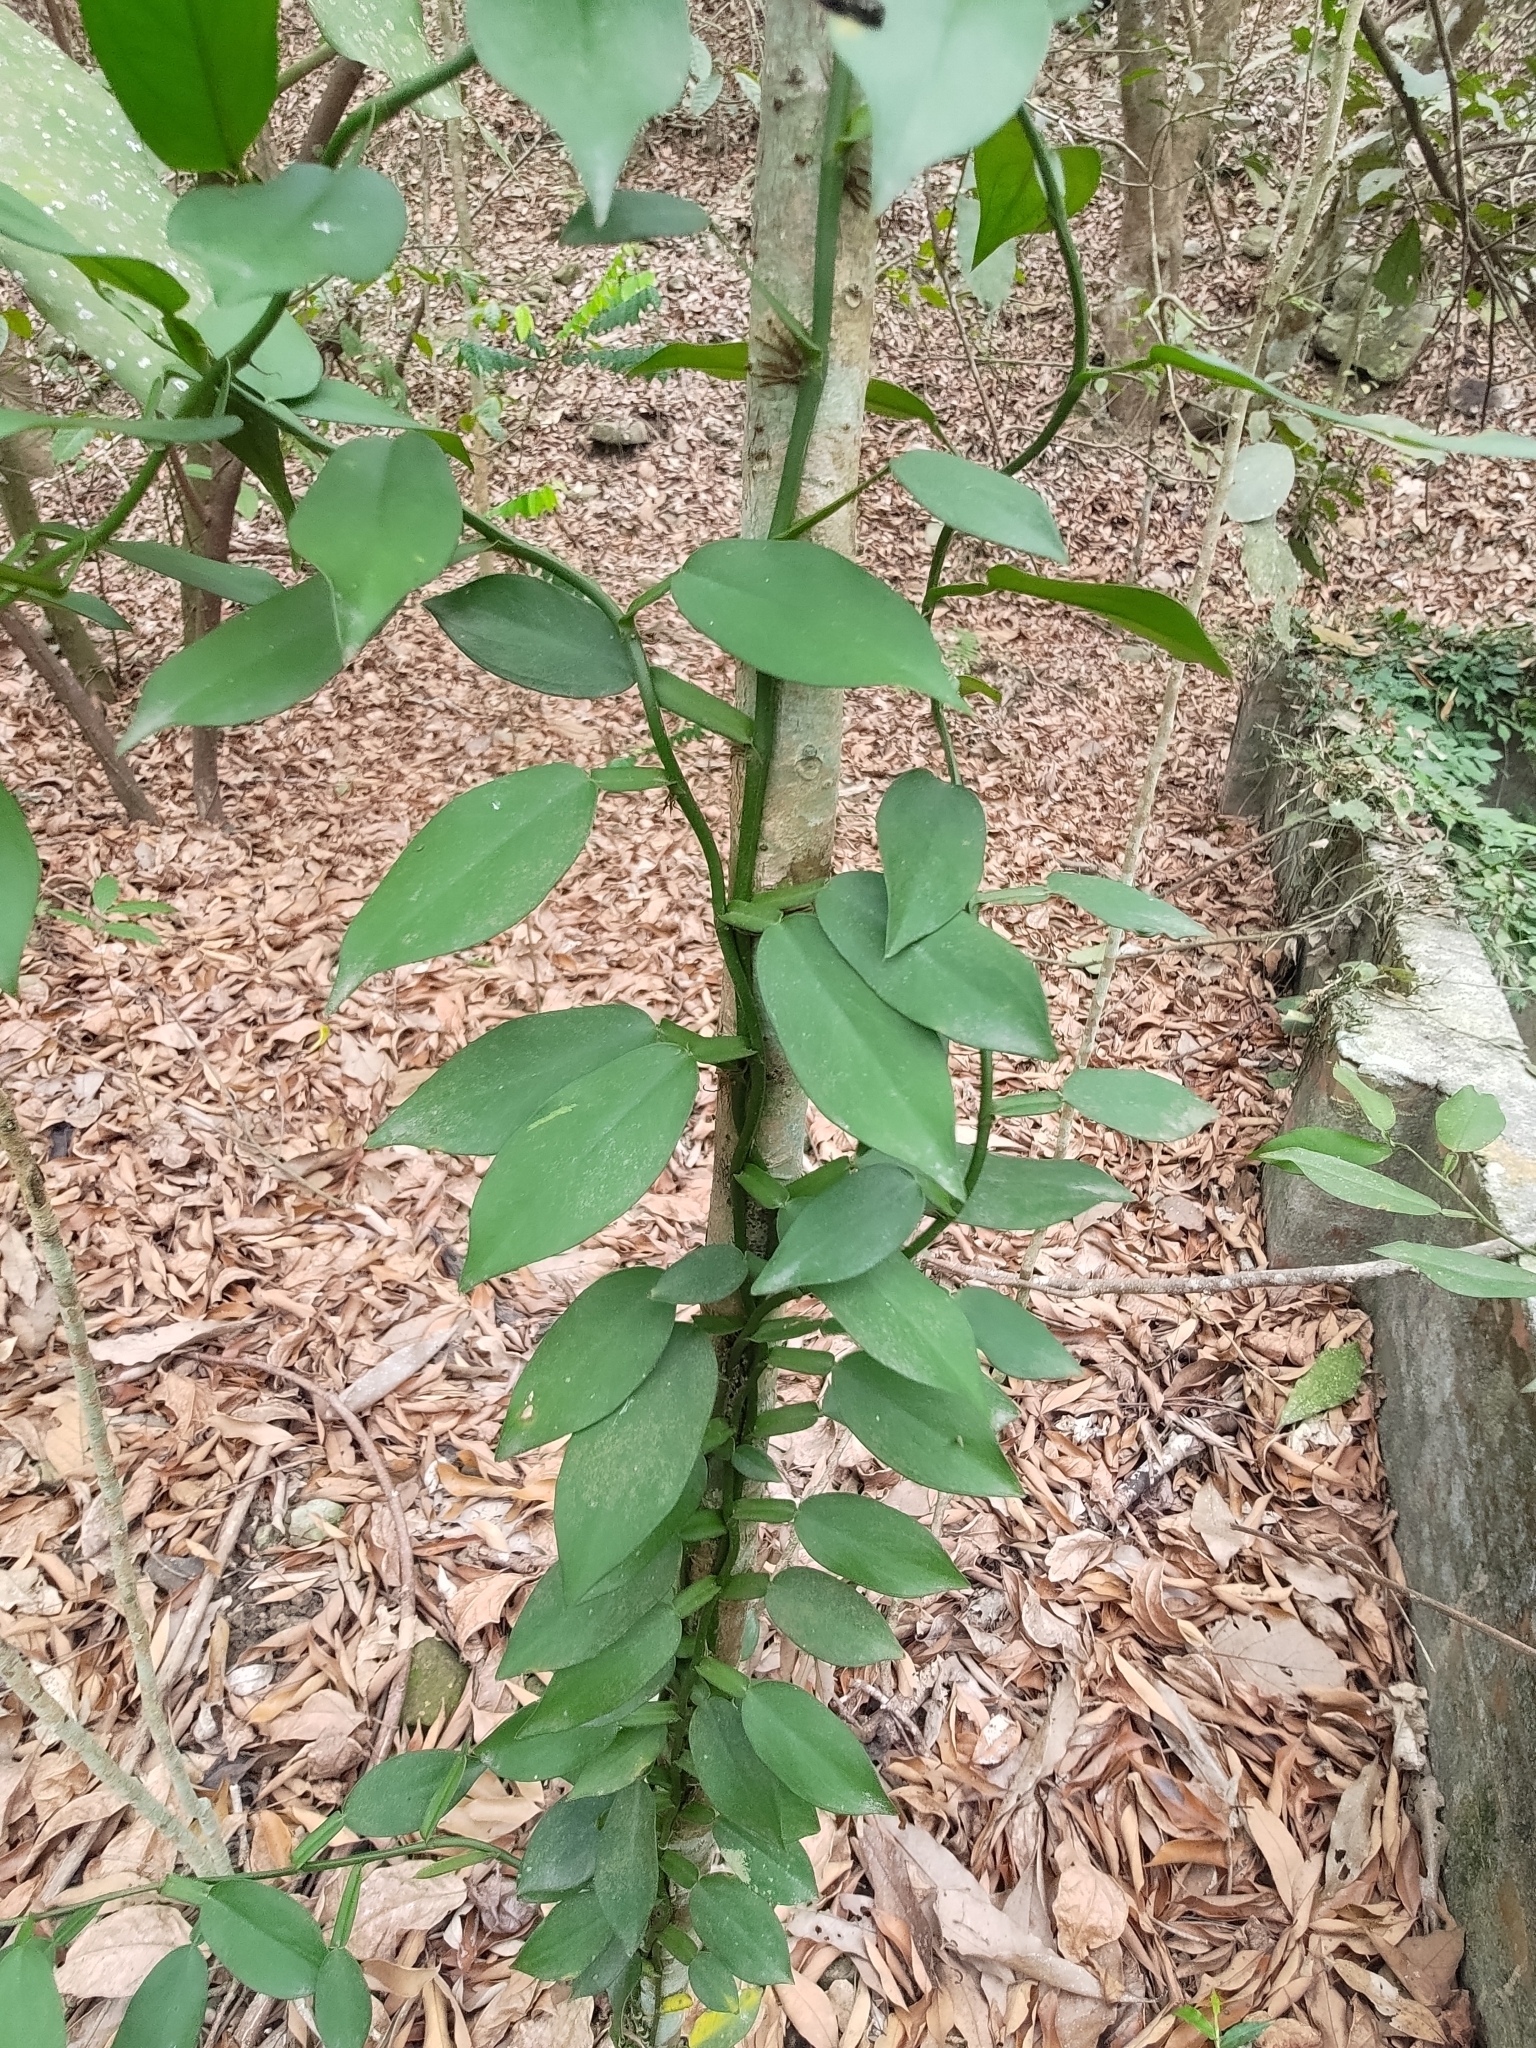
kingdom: Plantae
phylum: Tracheophyta
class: Liliopsida
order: Alismatales
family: Araceae
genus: Pothos
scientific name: Pothos chinensis
